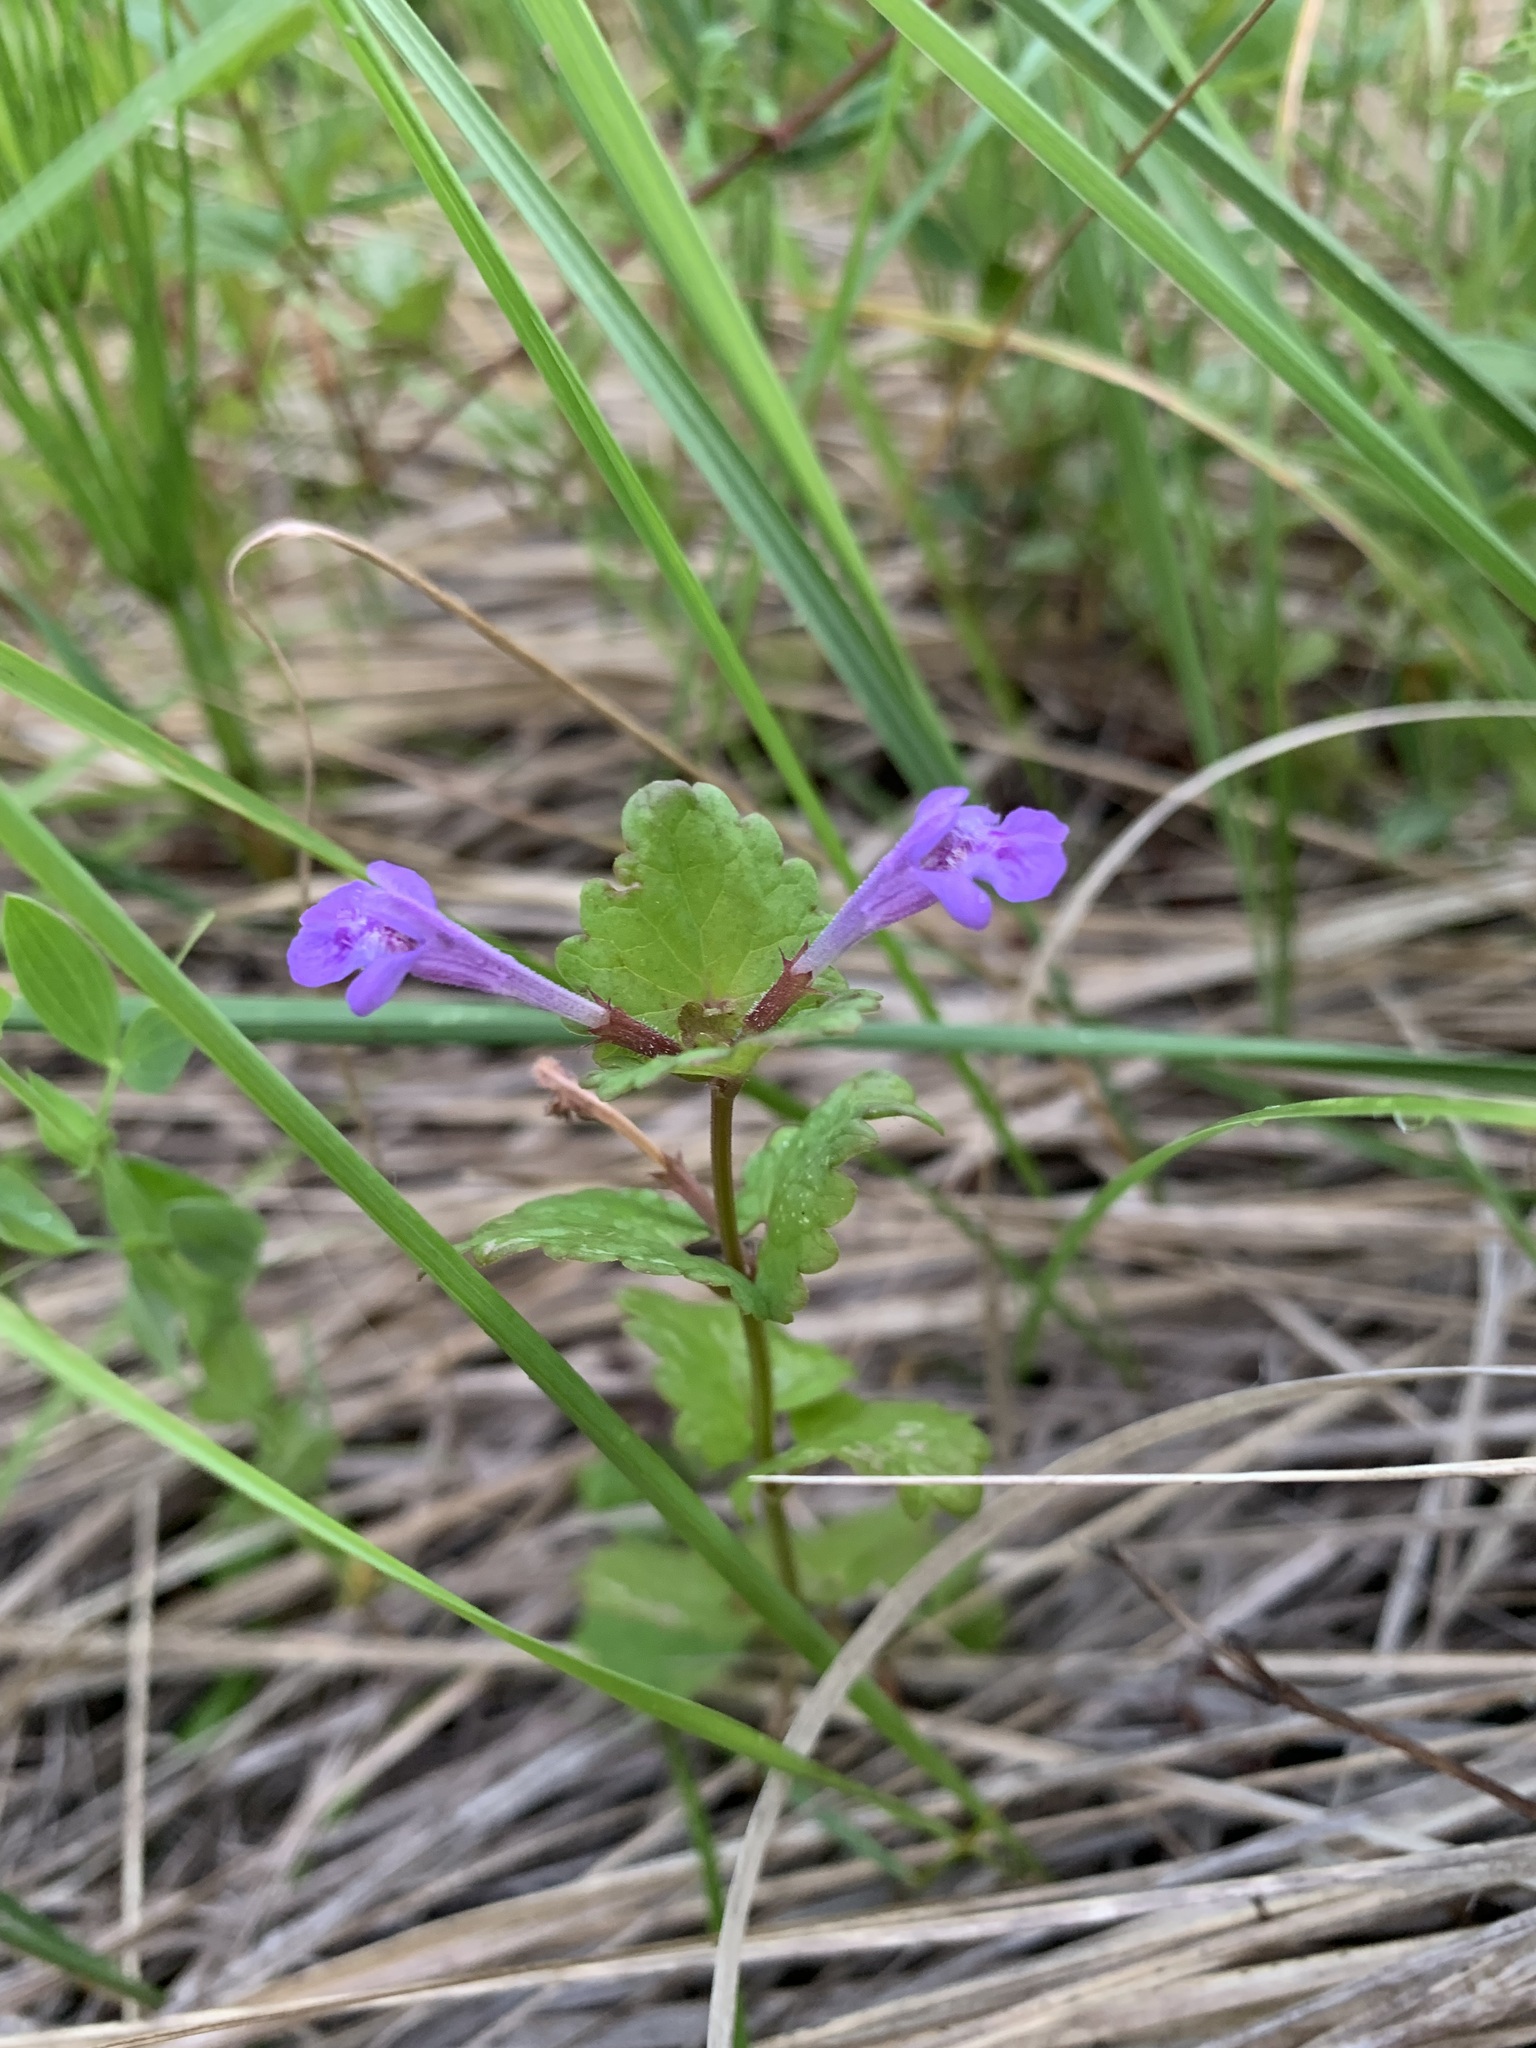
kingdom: Plantae
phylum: Tracheophyta
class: Magnoliopsida
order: Lamiales
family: Lamiaceae
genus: Glechoma
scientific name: Glechoma hederacea
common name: Ground ivy
